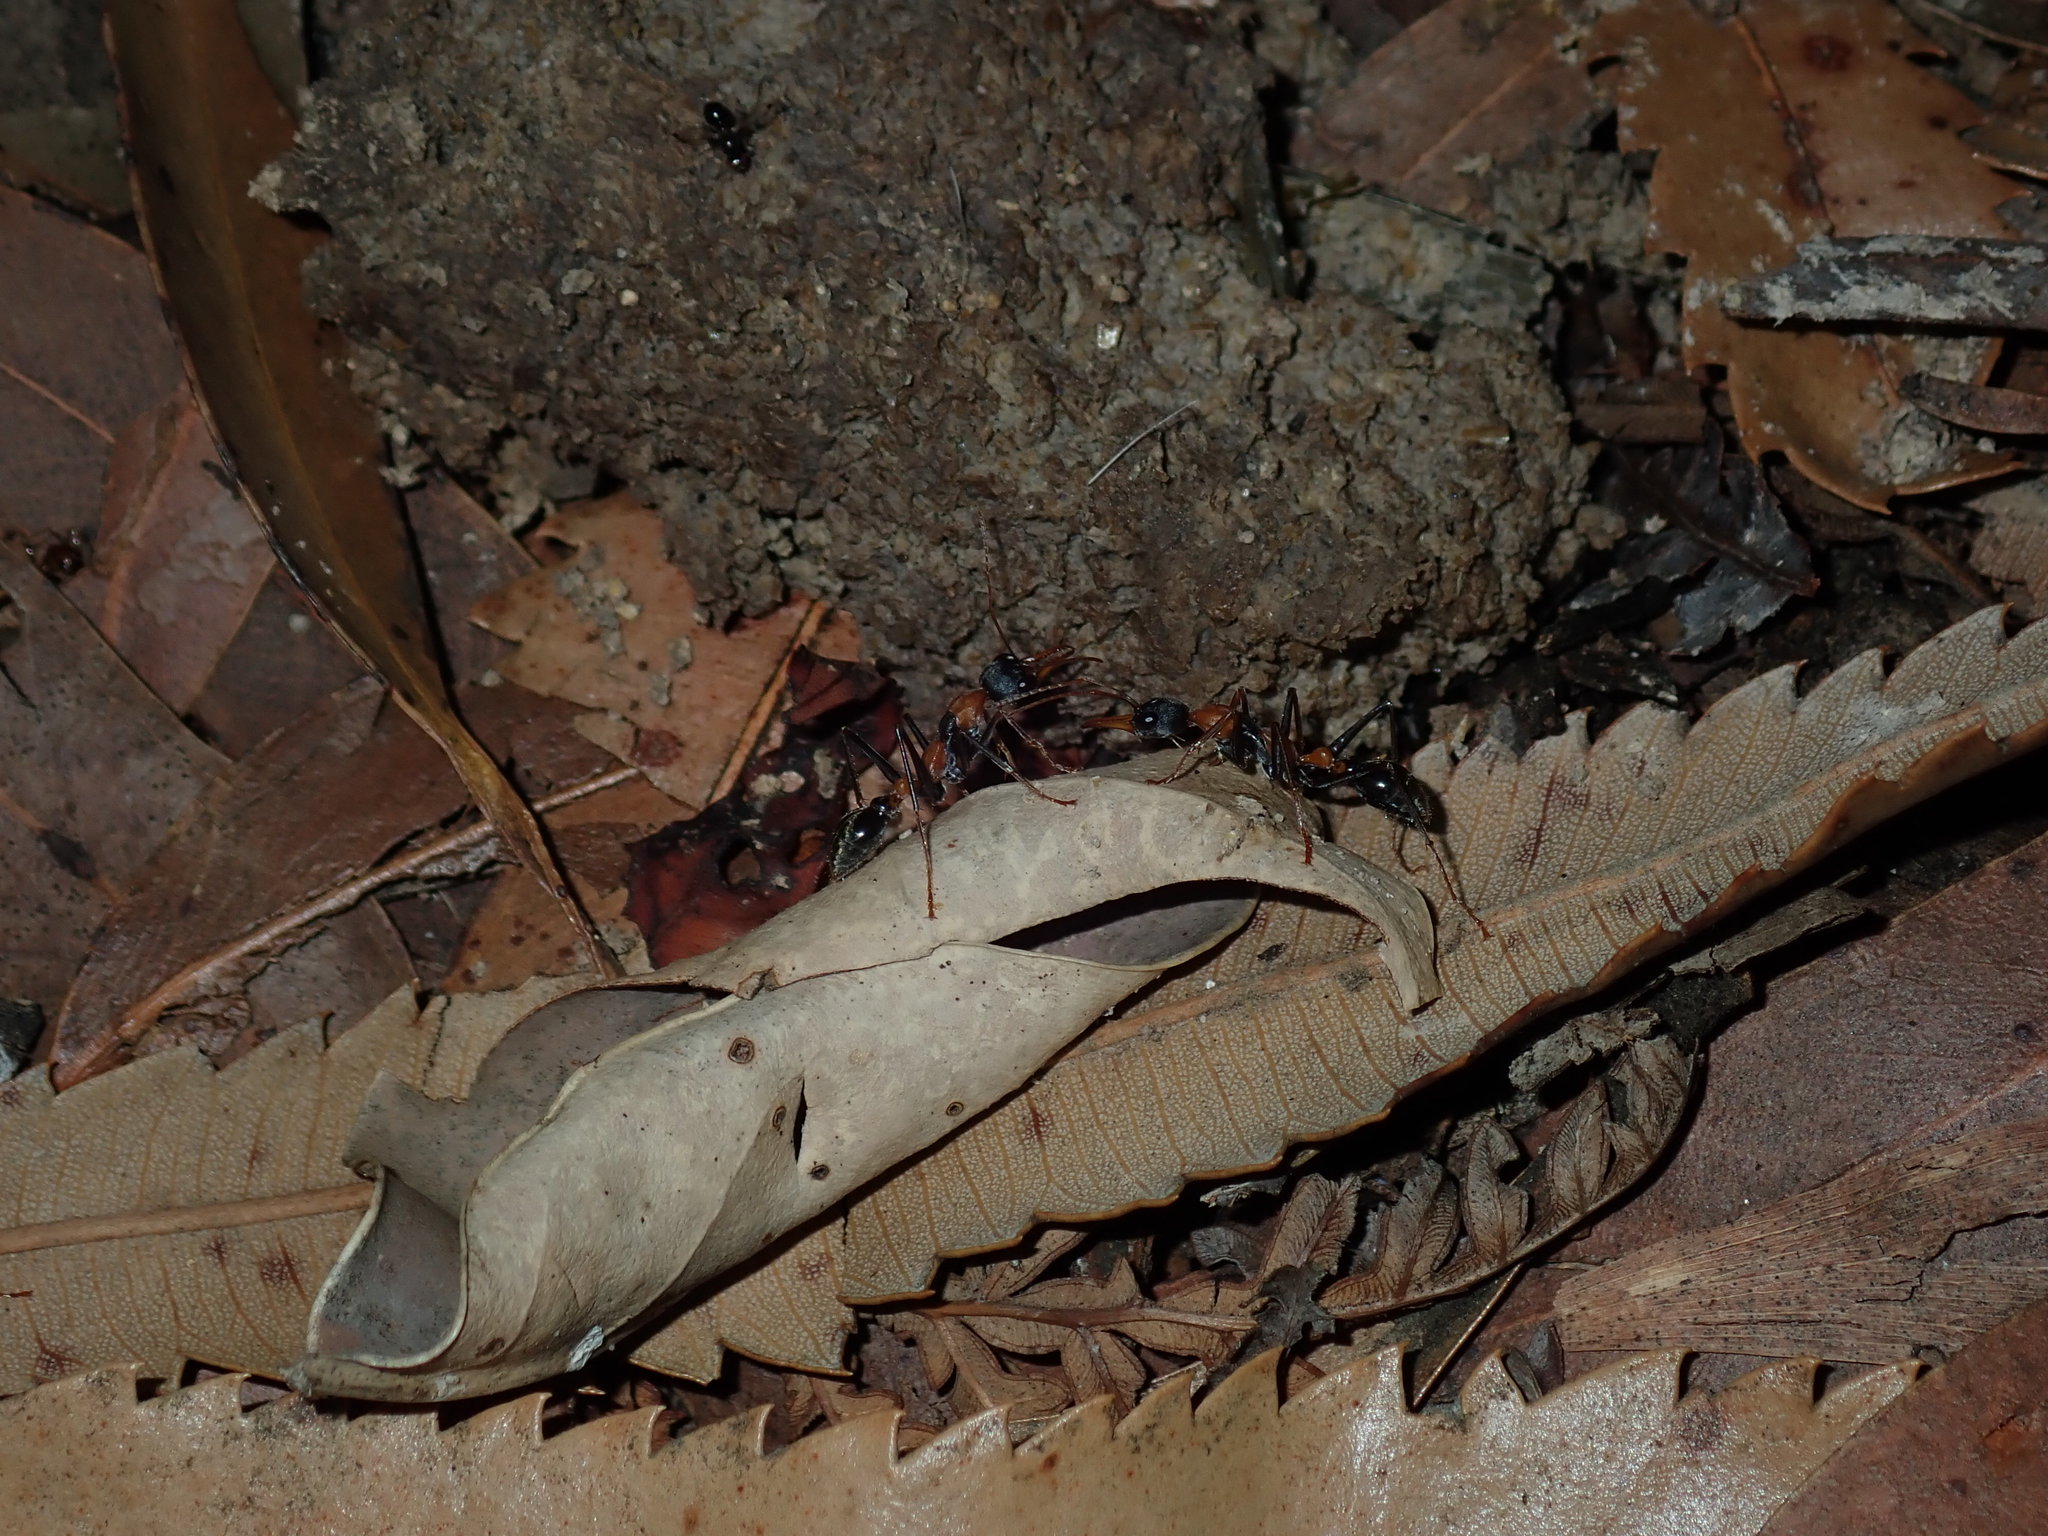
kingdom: Animalia
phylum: Arthropoda
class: Insecta
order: Hymenoptera
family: Formicidae
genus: Myrmecia
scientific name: Myrmecia nigrocincta
